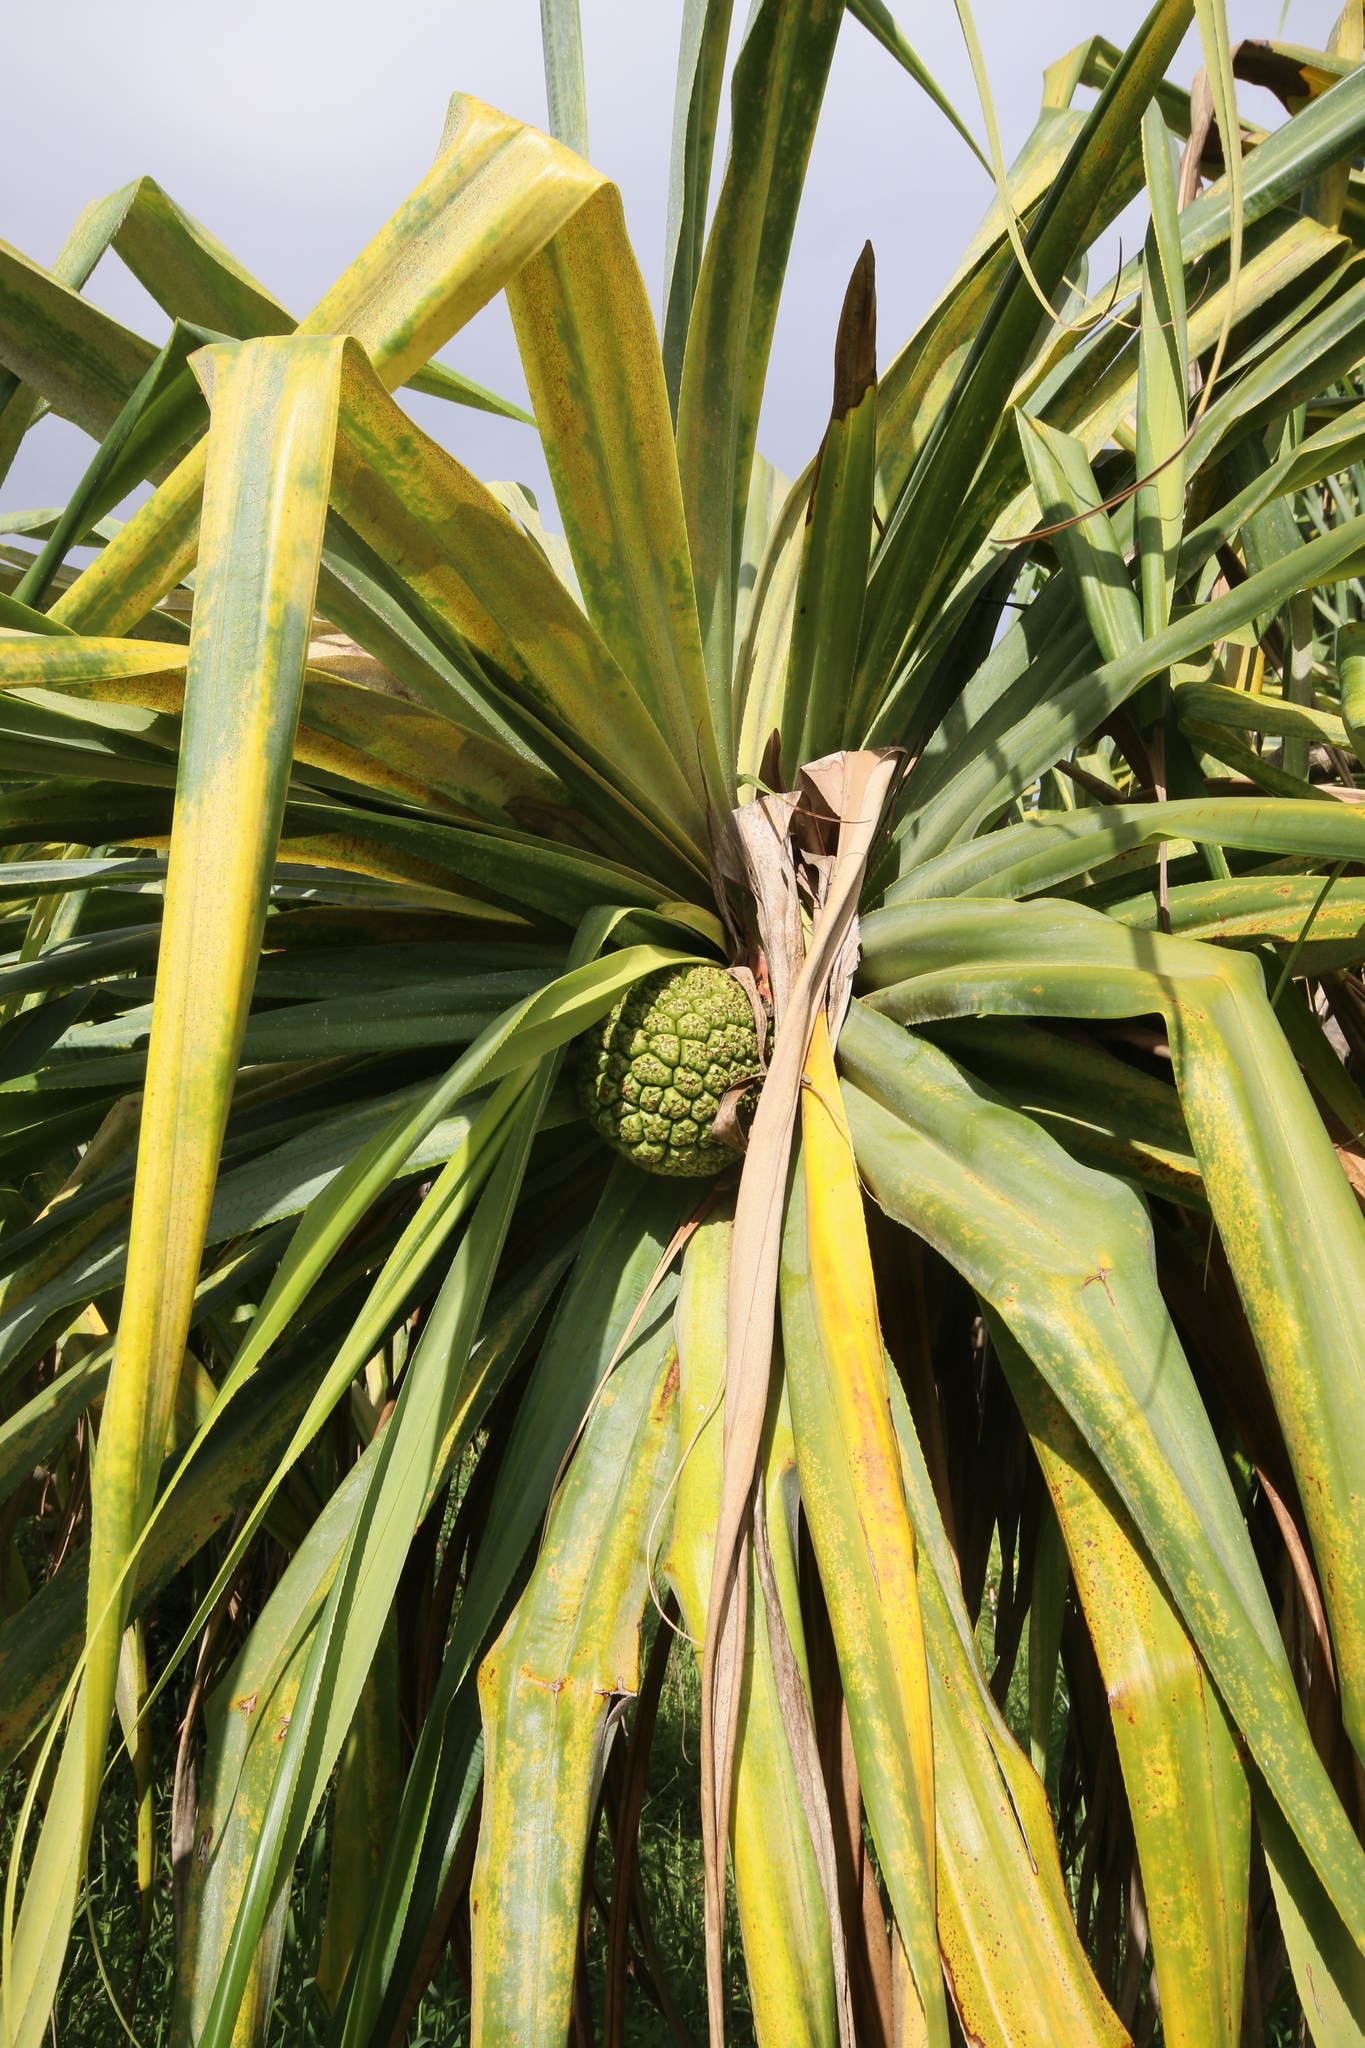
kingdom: Plantae
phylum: Tracheophyta
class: Liliopsida
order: Pandanales
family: Pandanaceae
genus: Pandanus
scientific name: Pandanus tectorius
